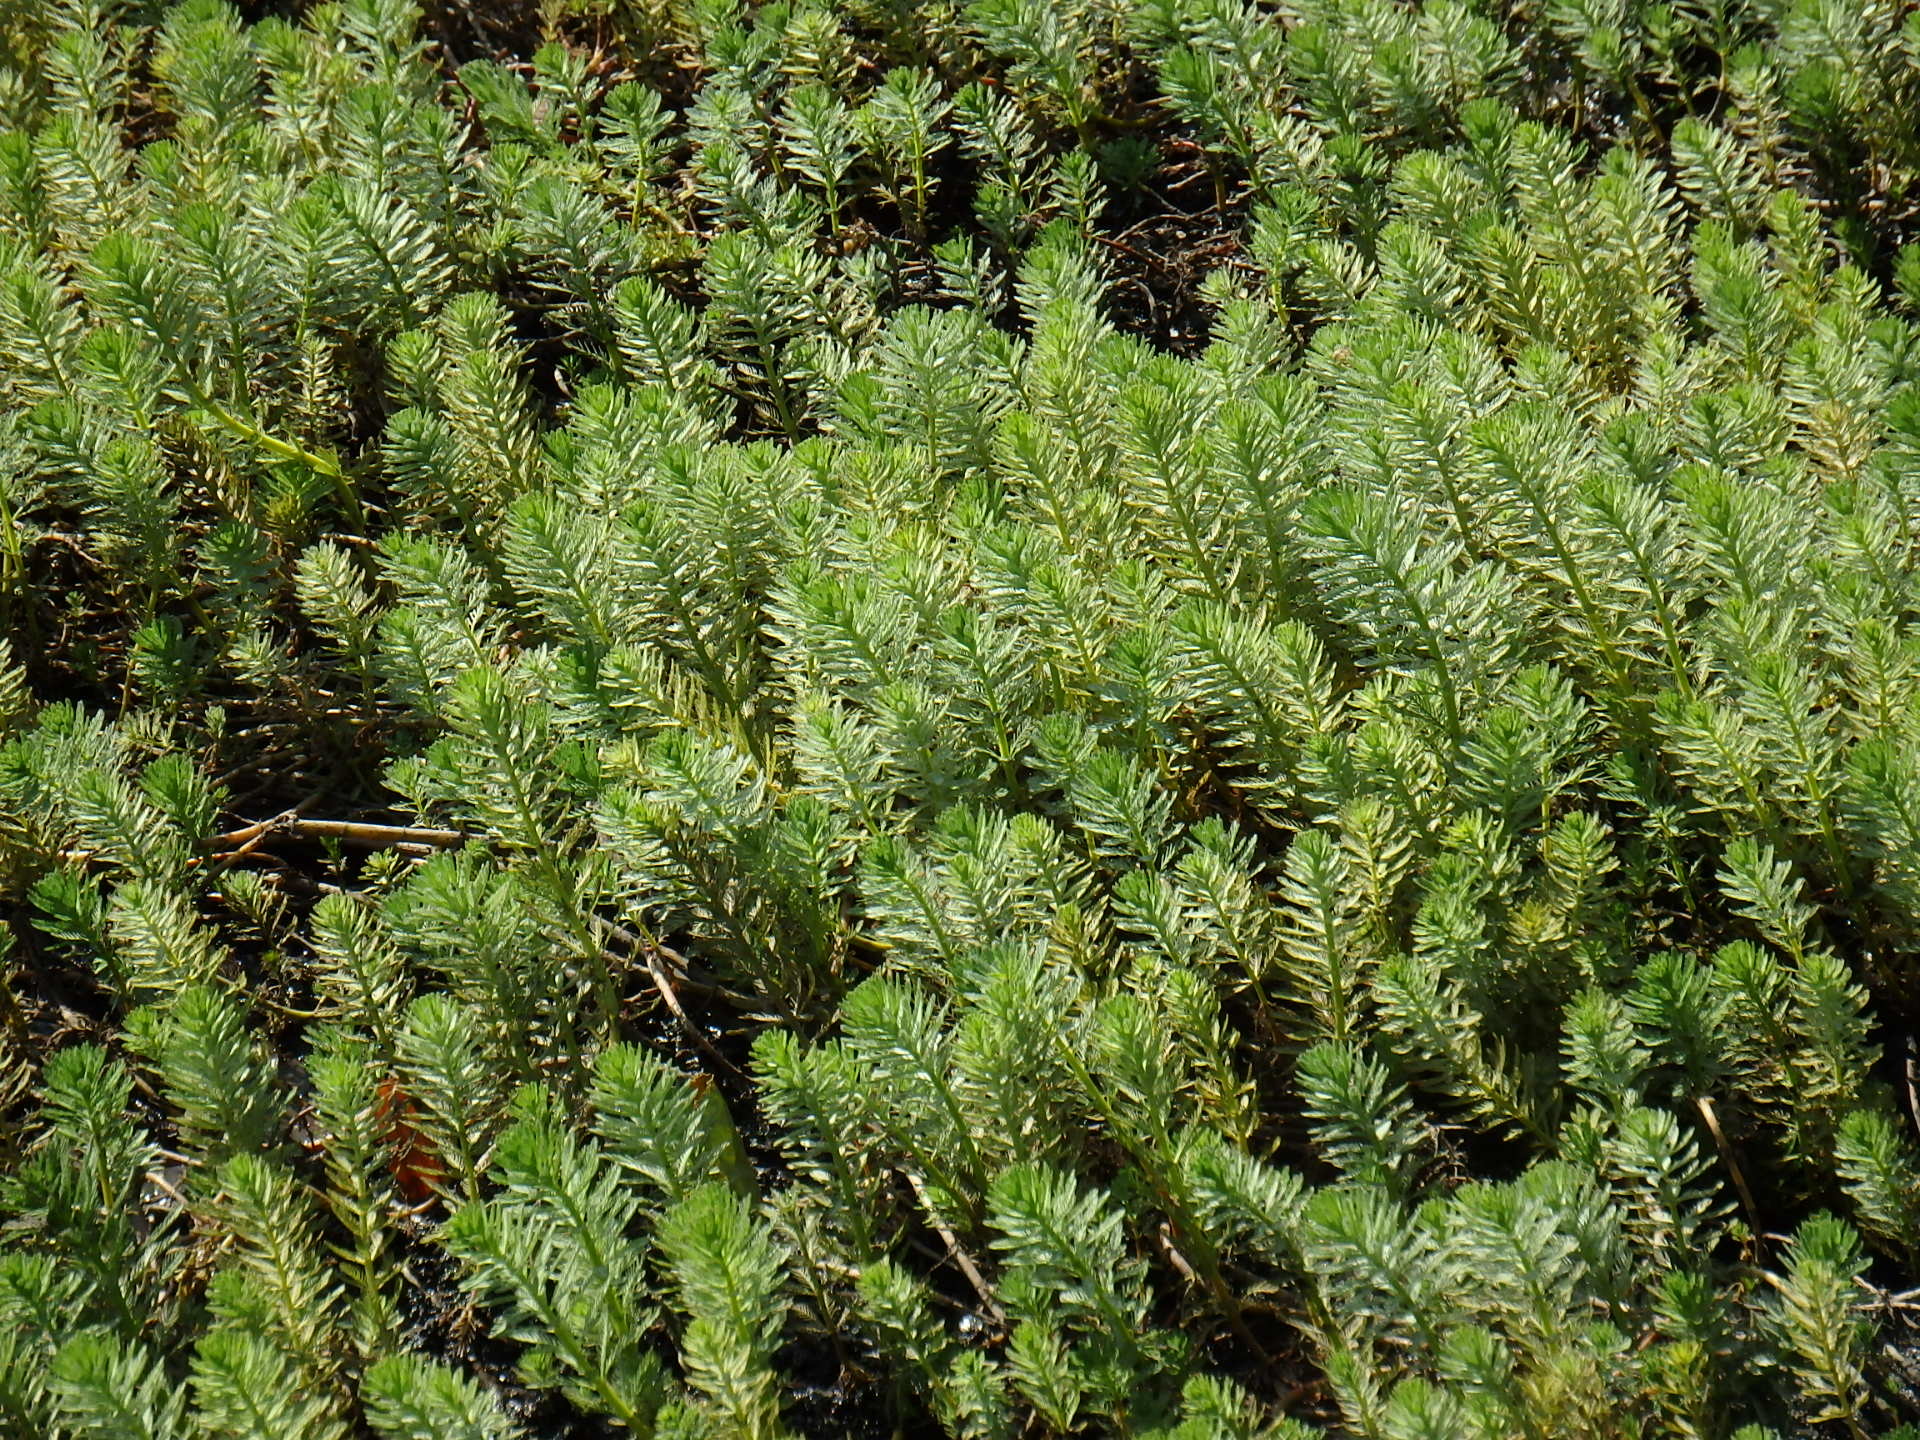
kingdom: Plantae
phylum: Tracheophyta
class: Magnoliopsida
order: Saxifragales
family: Haloragaceae
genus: Myriophyllum
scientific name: Myriophyllum aquaticum
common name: Parrot's feather
